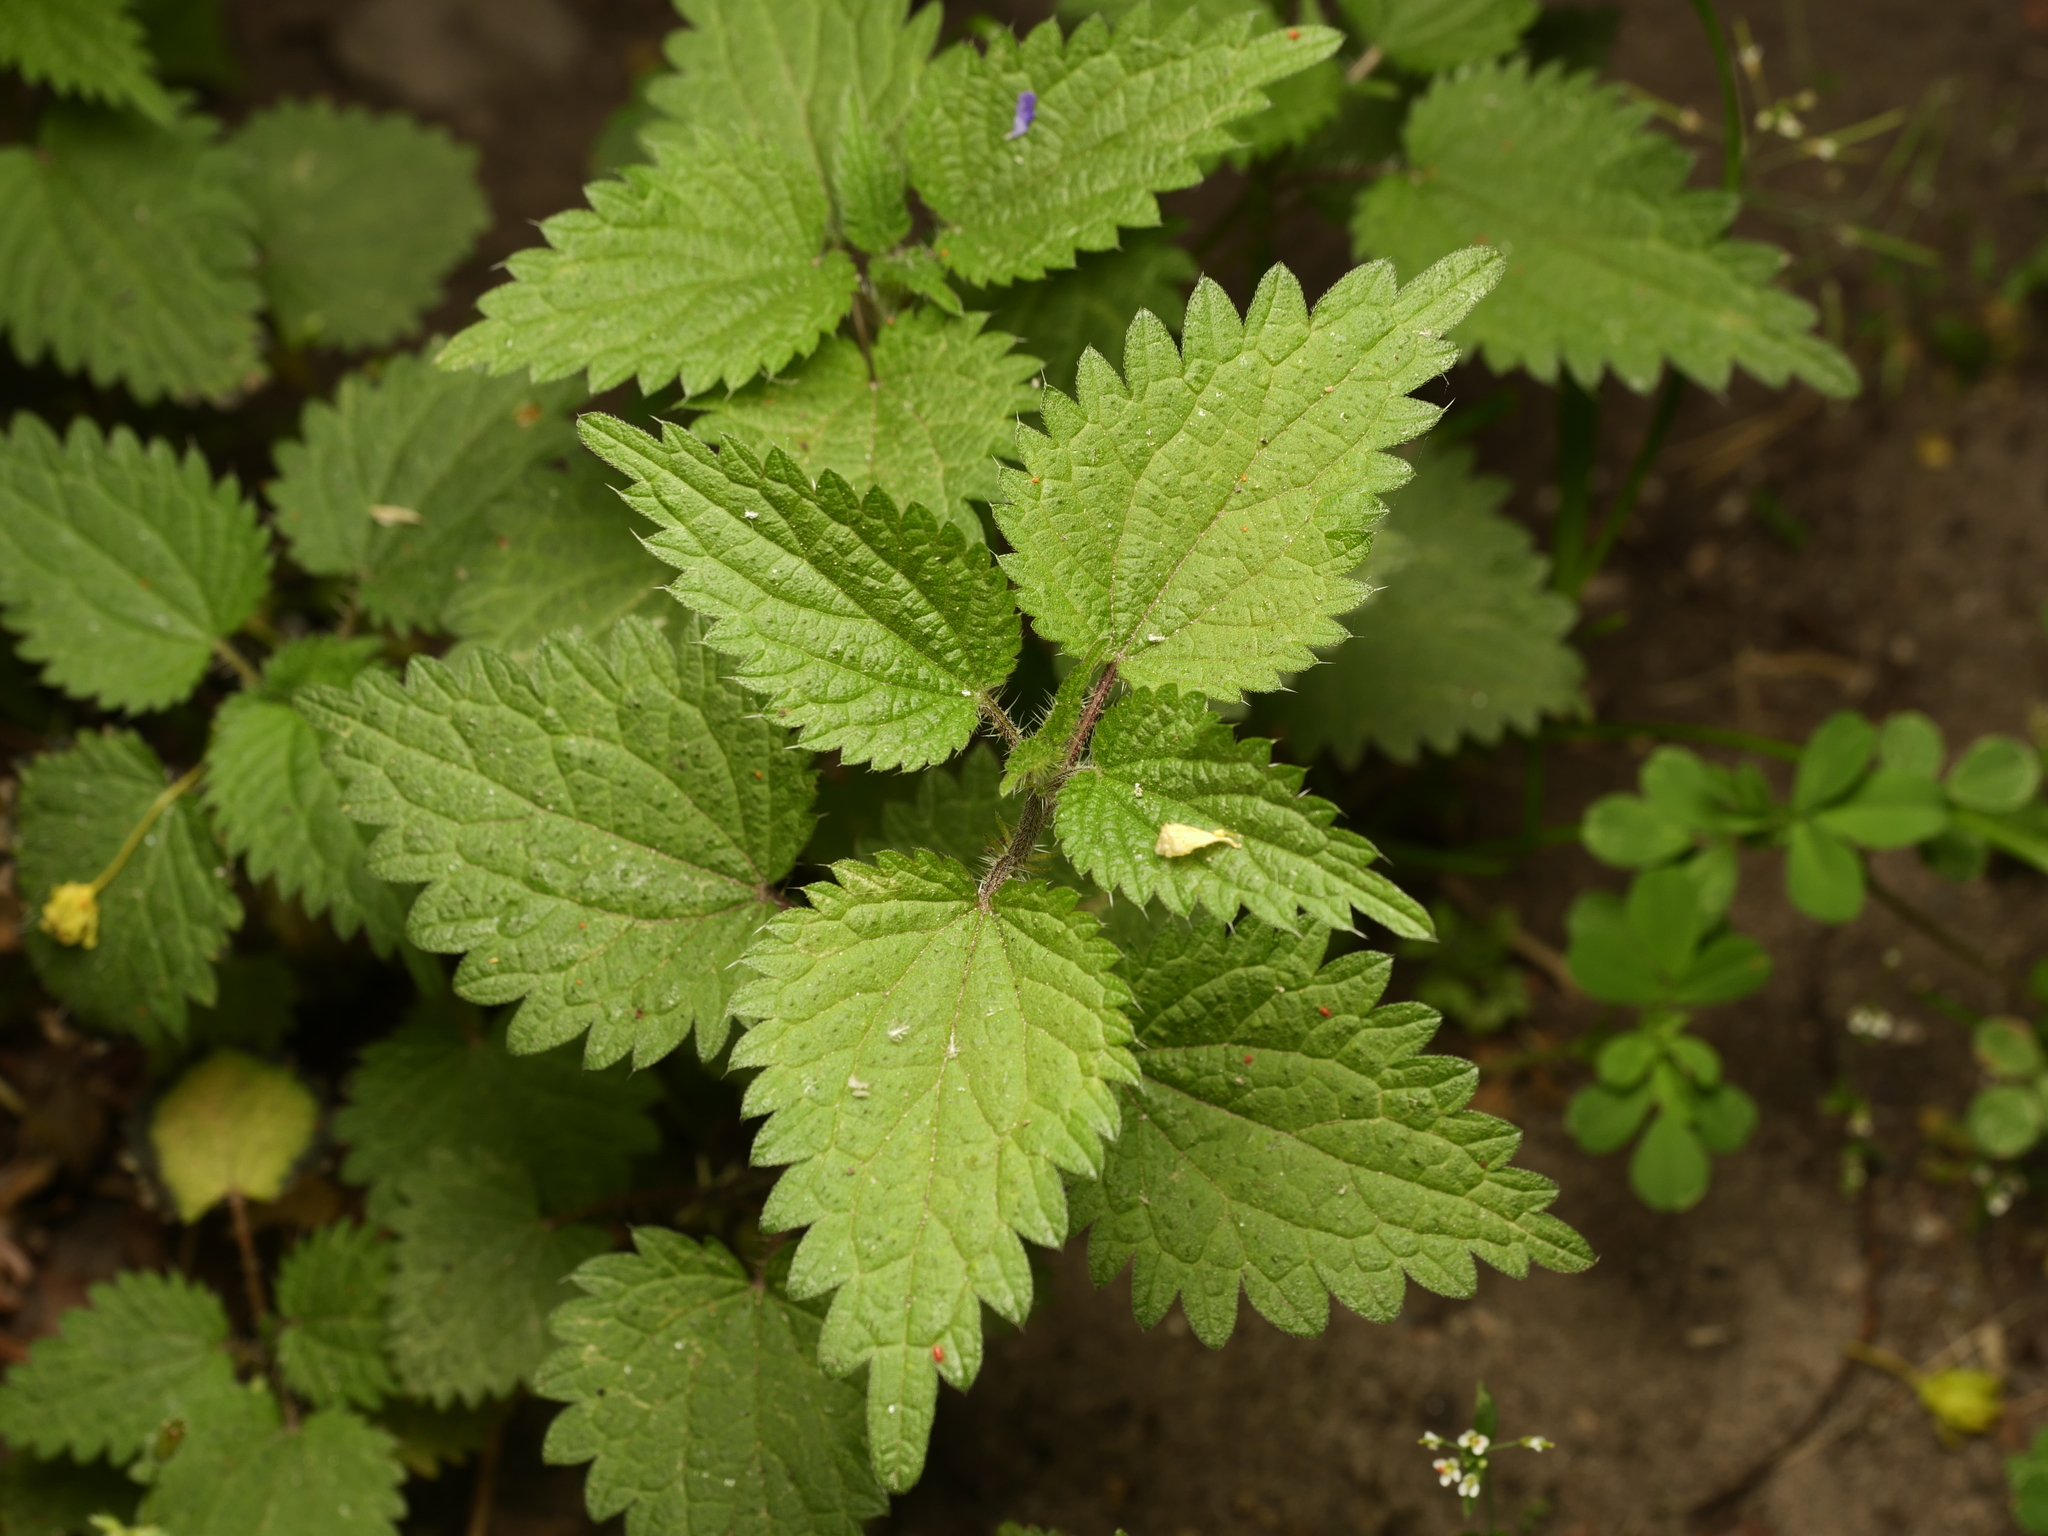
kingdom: Plantae
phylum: Tracheophyta
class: Magnoliopsida
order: Rosales
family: Urticaceae
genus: Urtica
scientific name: Urtica dioica
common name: Common nettle
